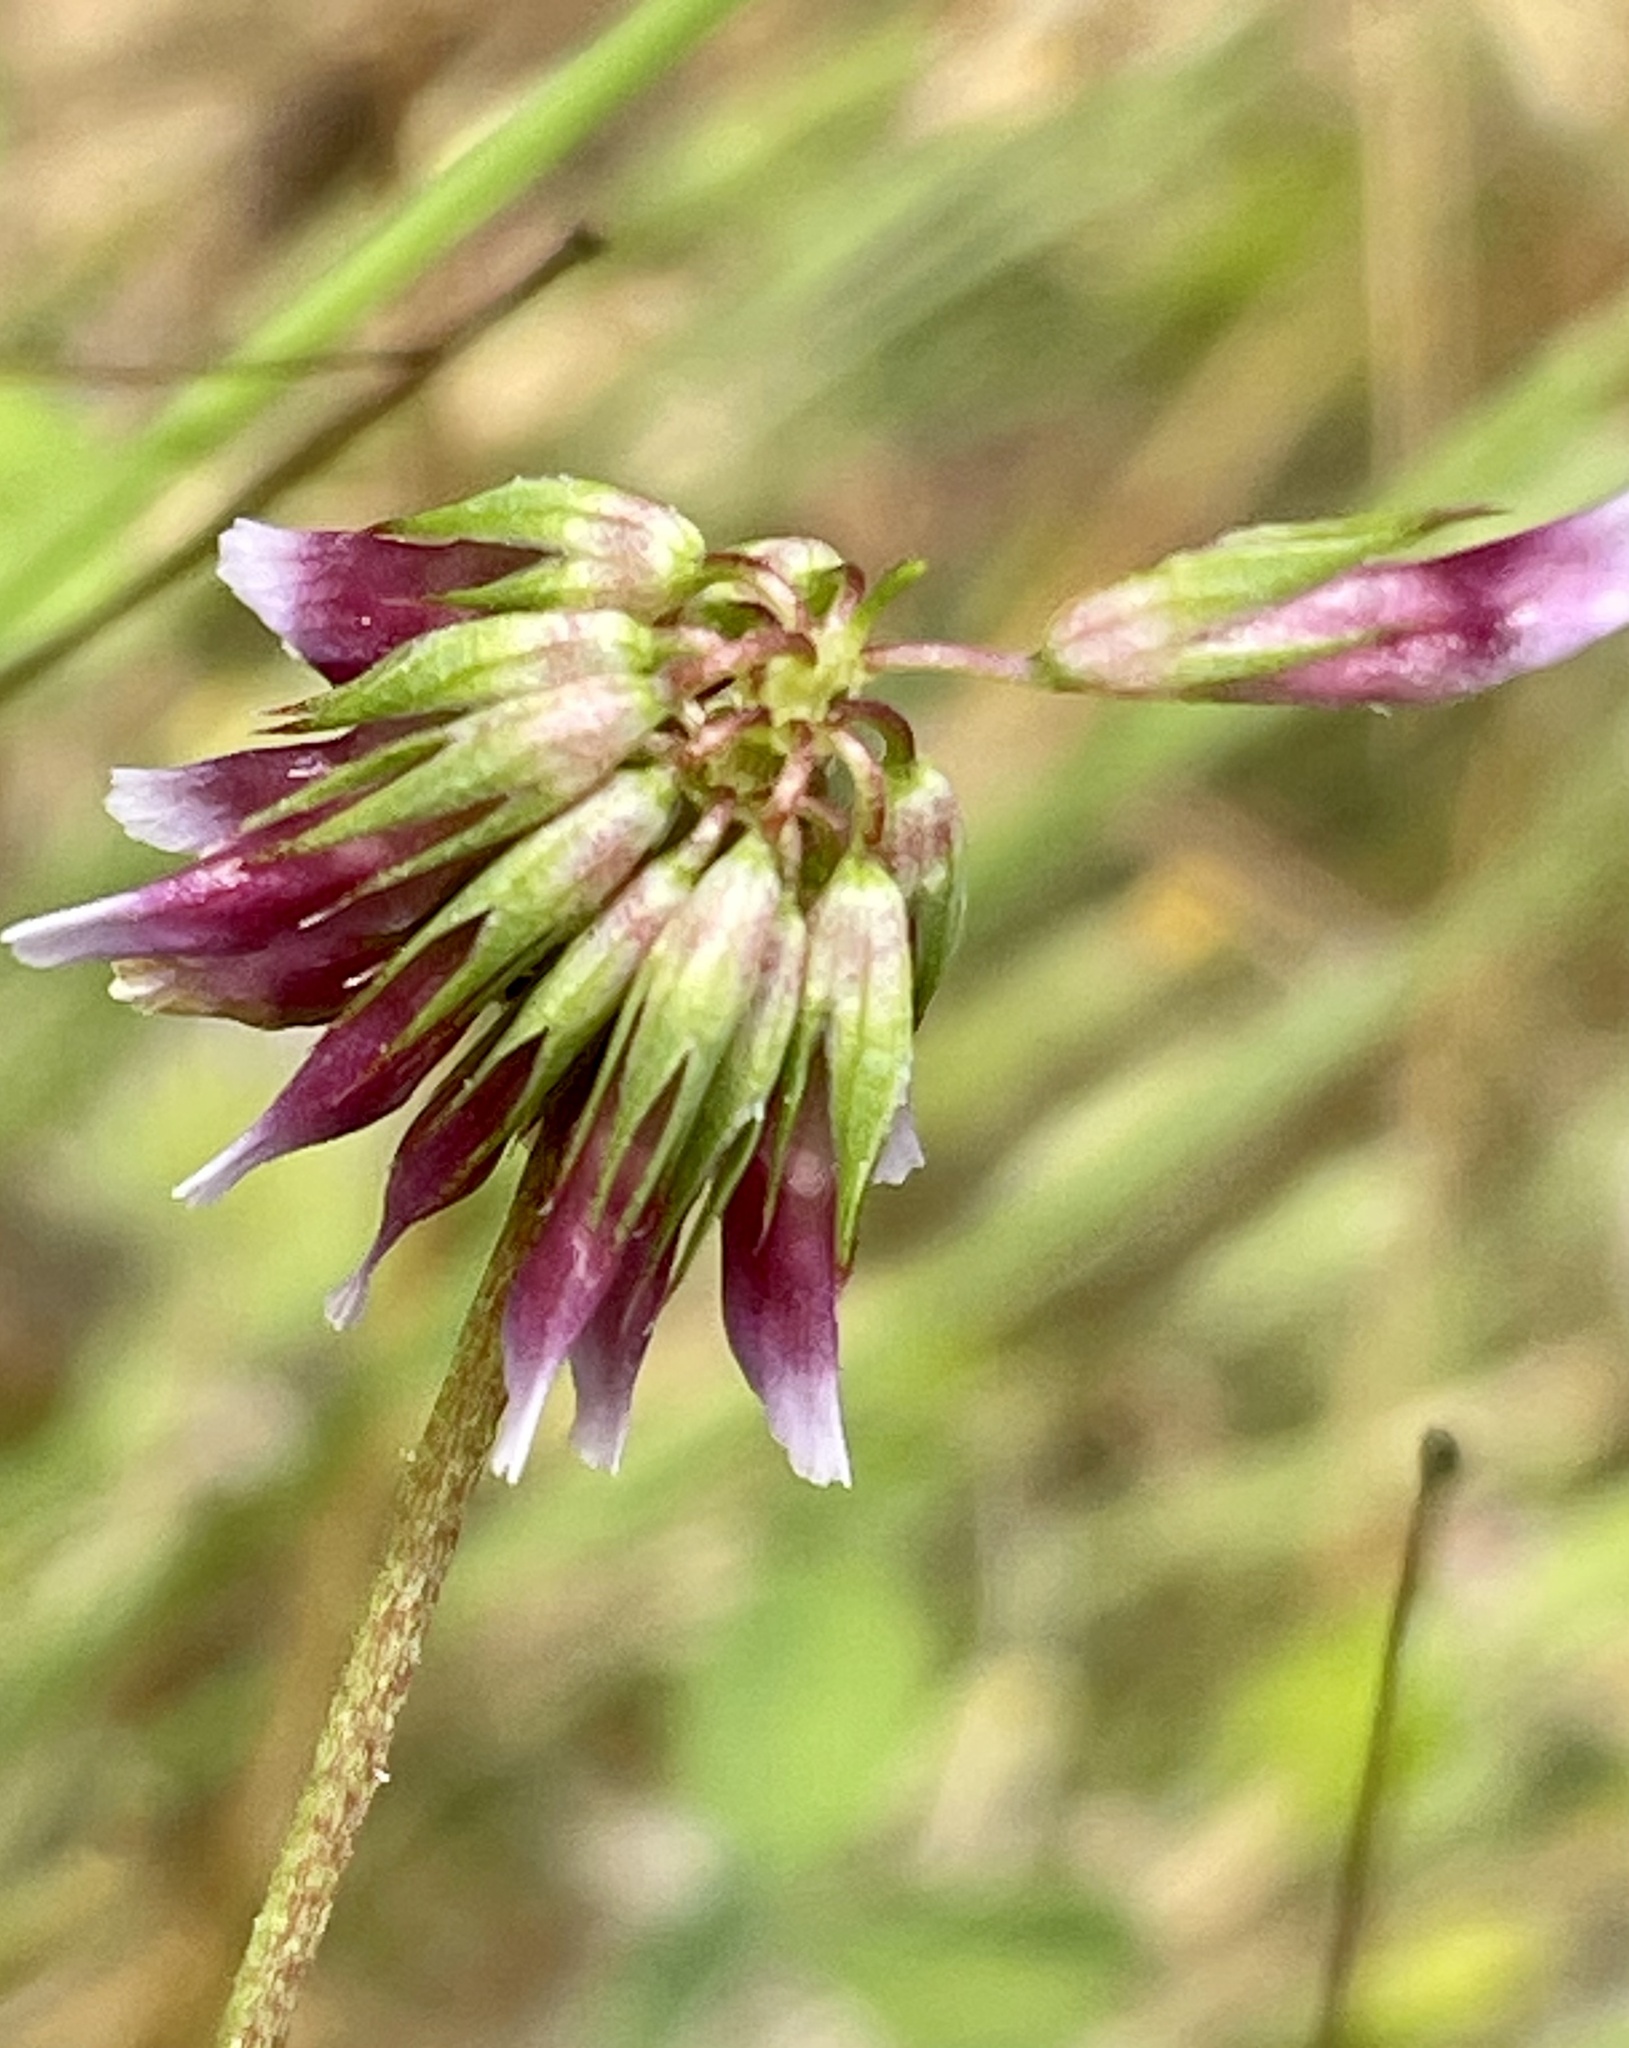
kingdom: Plantae
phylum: Tracheophyta
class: Magnoliopsida
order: Fabales
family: Fabaceae
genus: Trifolium
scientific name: Trifolium gracilentum
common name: Slender clover
